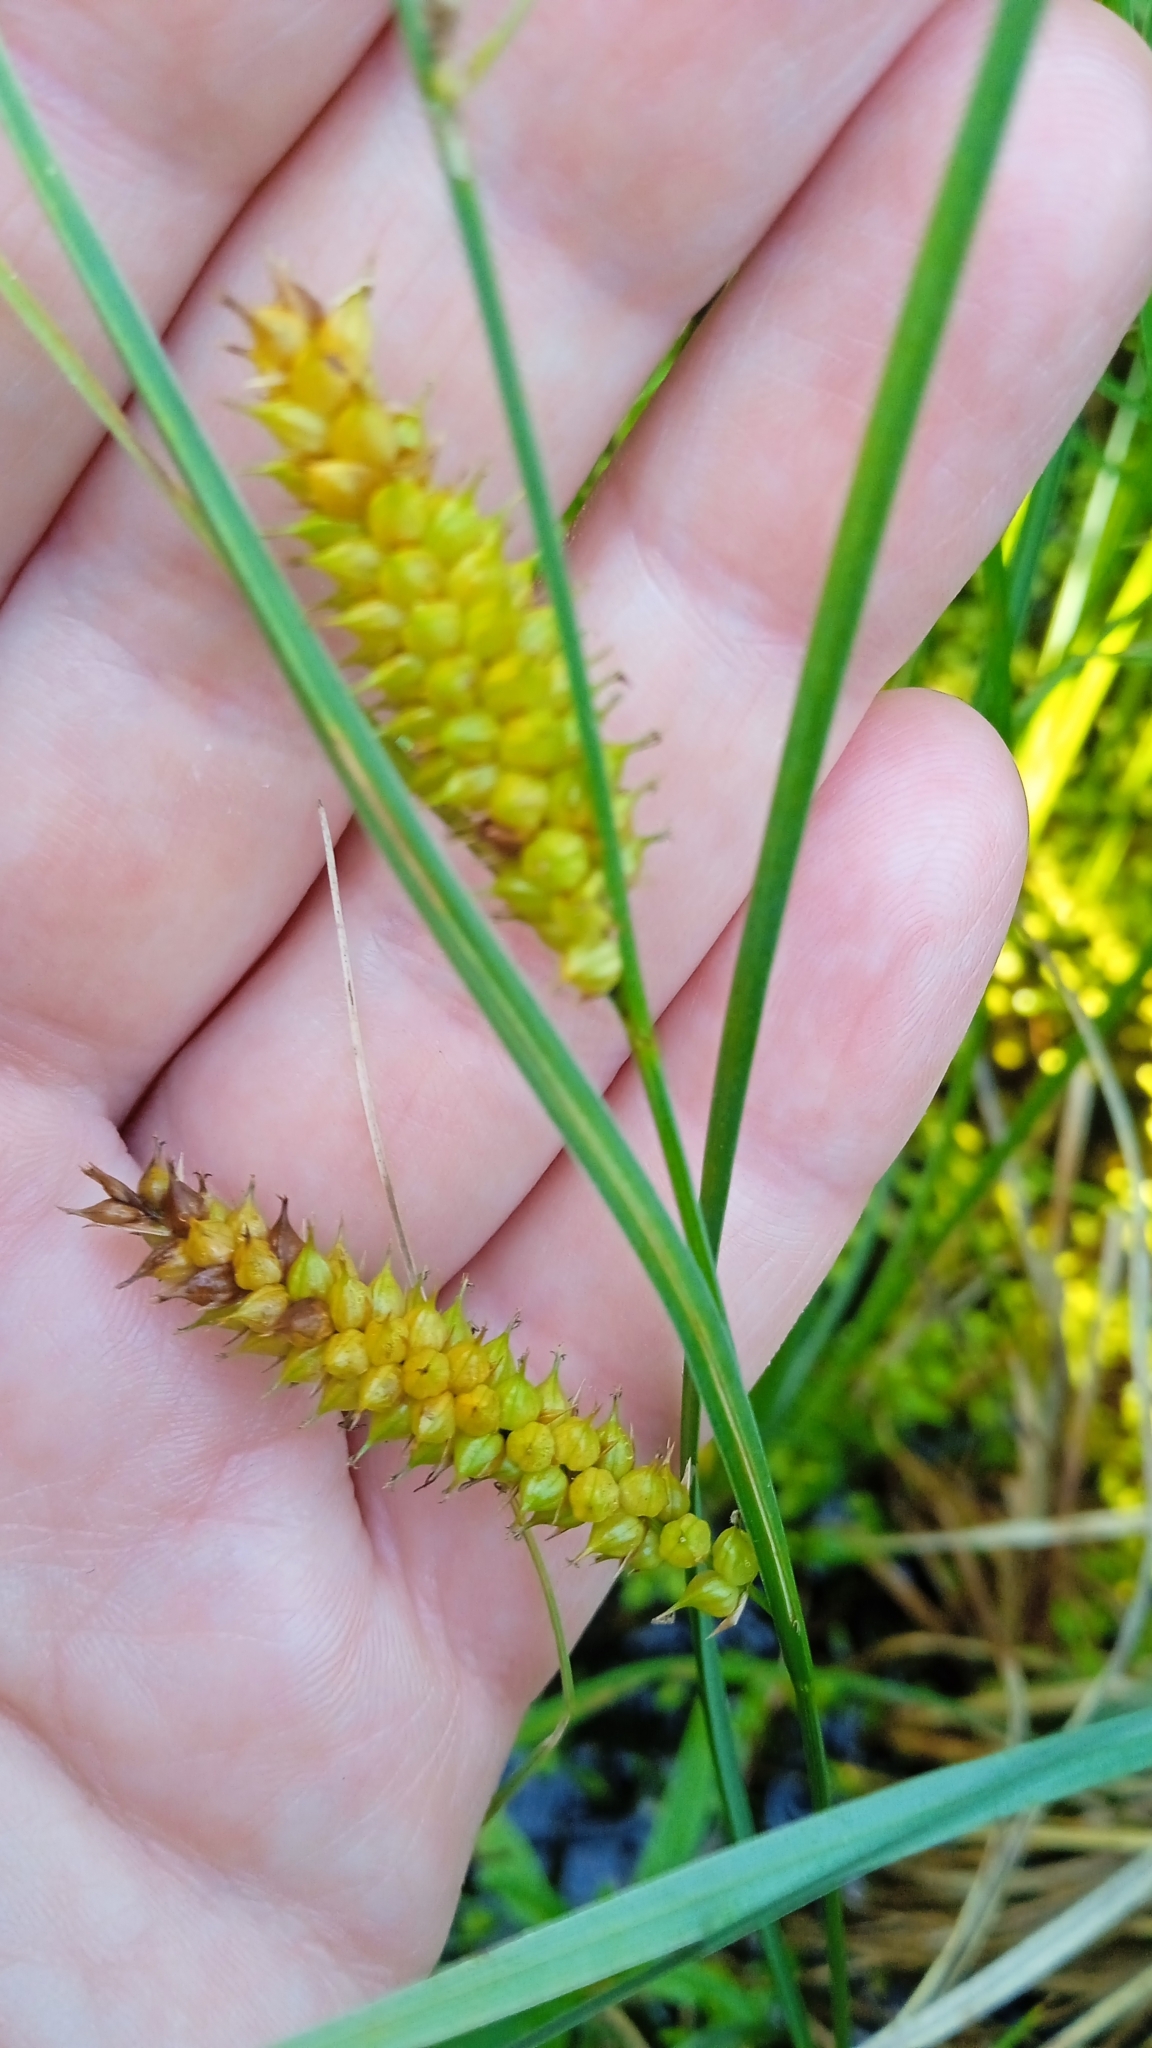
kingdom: Plantae
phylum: Tracheophyta
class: Liliopsida
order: Poales
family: Cyperaceae
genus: Carex
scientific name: Carex rostrata
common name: Bottle sedge
